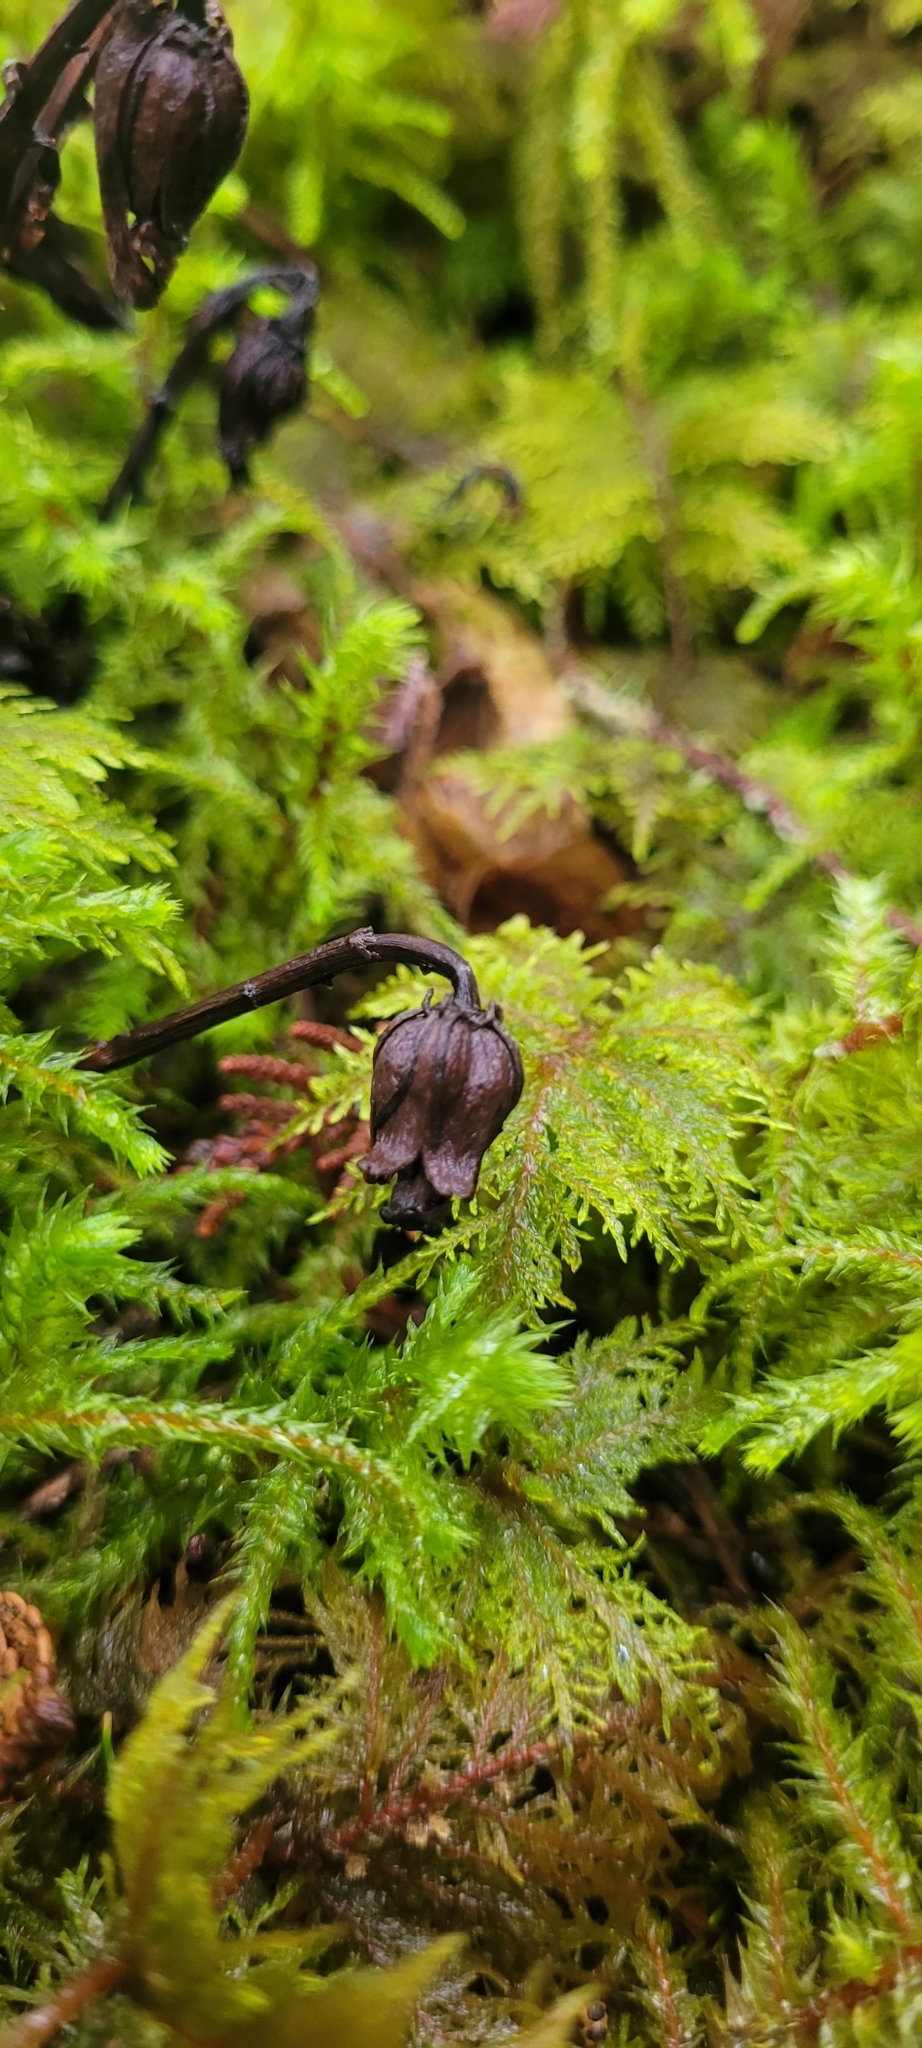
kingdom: Plantae
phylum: Tracheophyta
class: Magnoliopsida
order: Ericales
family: Ericaceae
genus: Monotropa
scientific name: Monotropa uniflora
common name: Convulsion root
